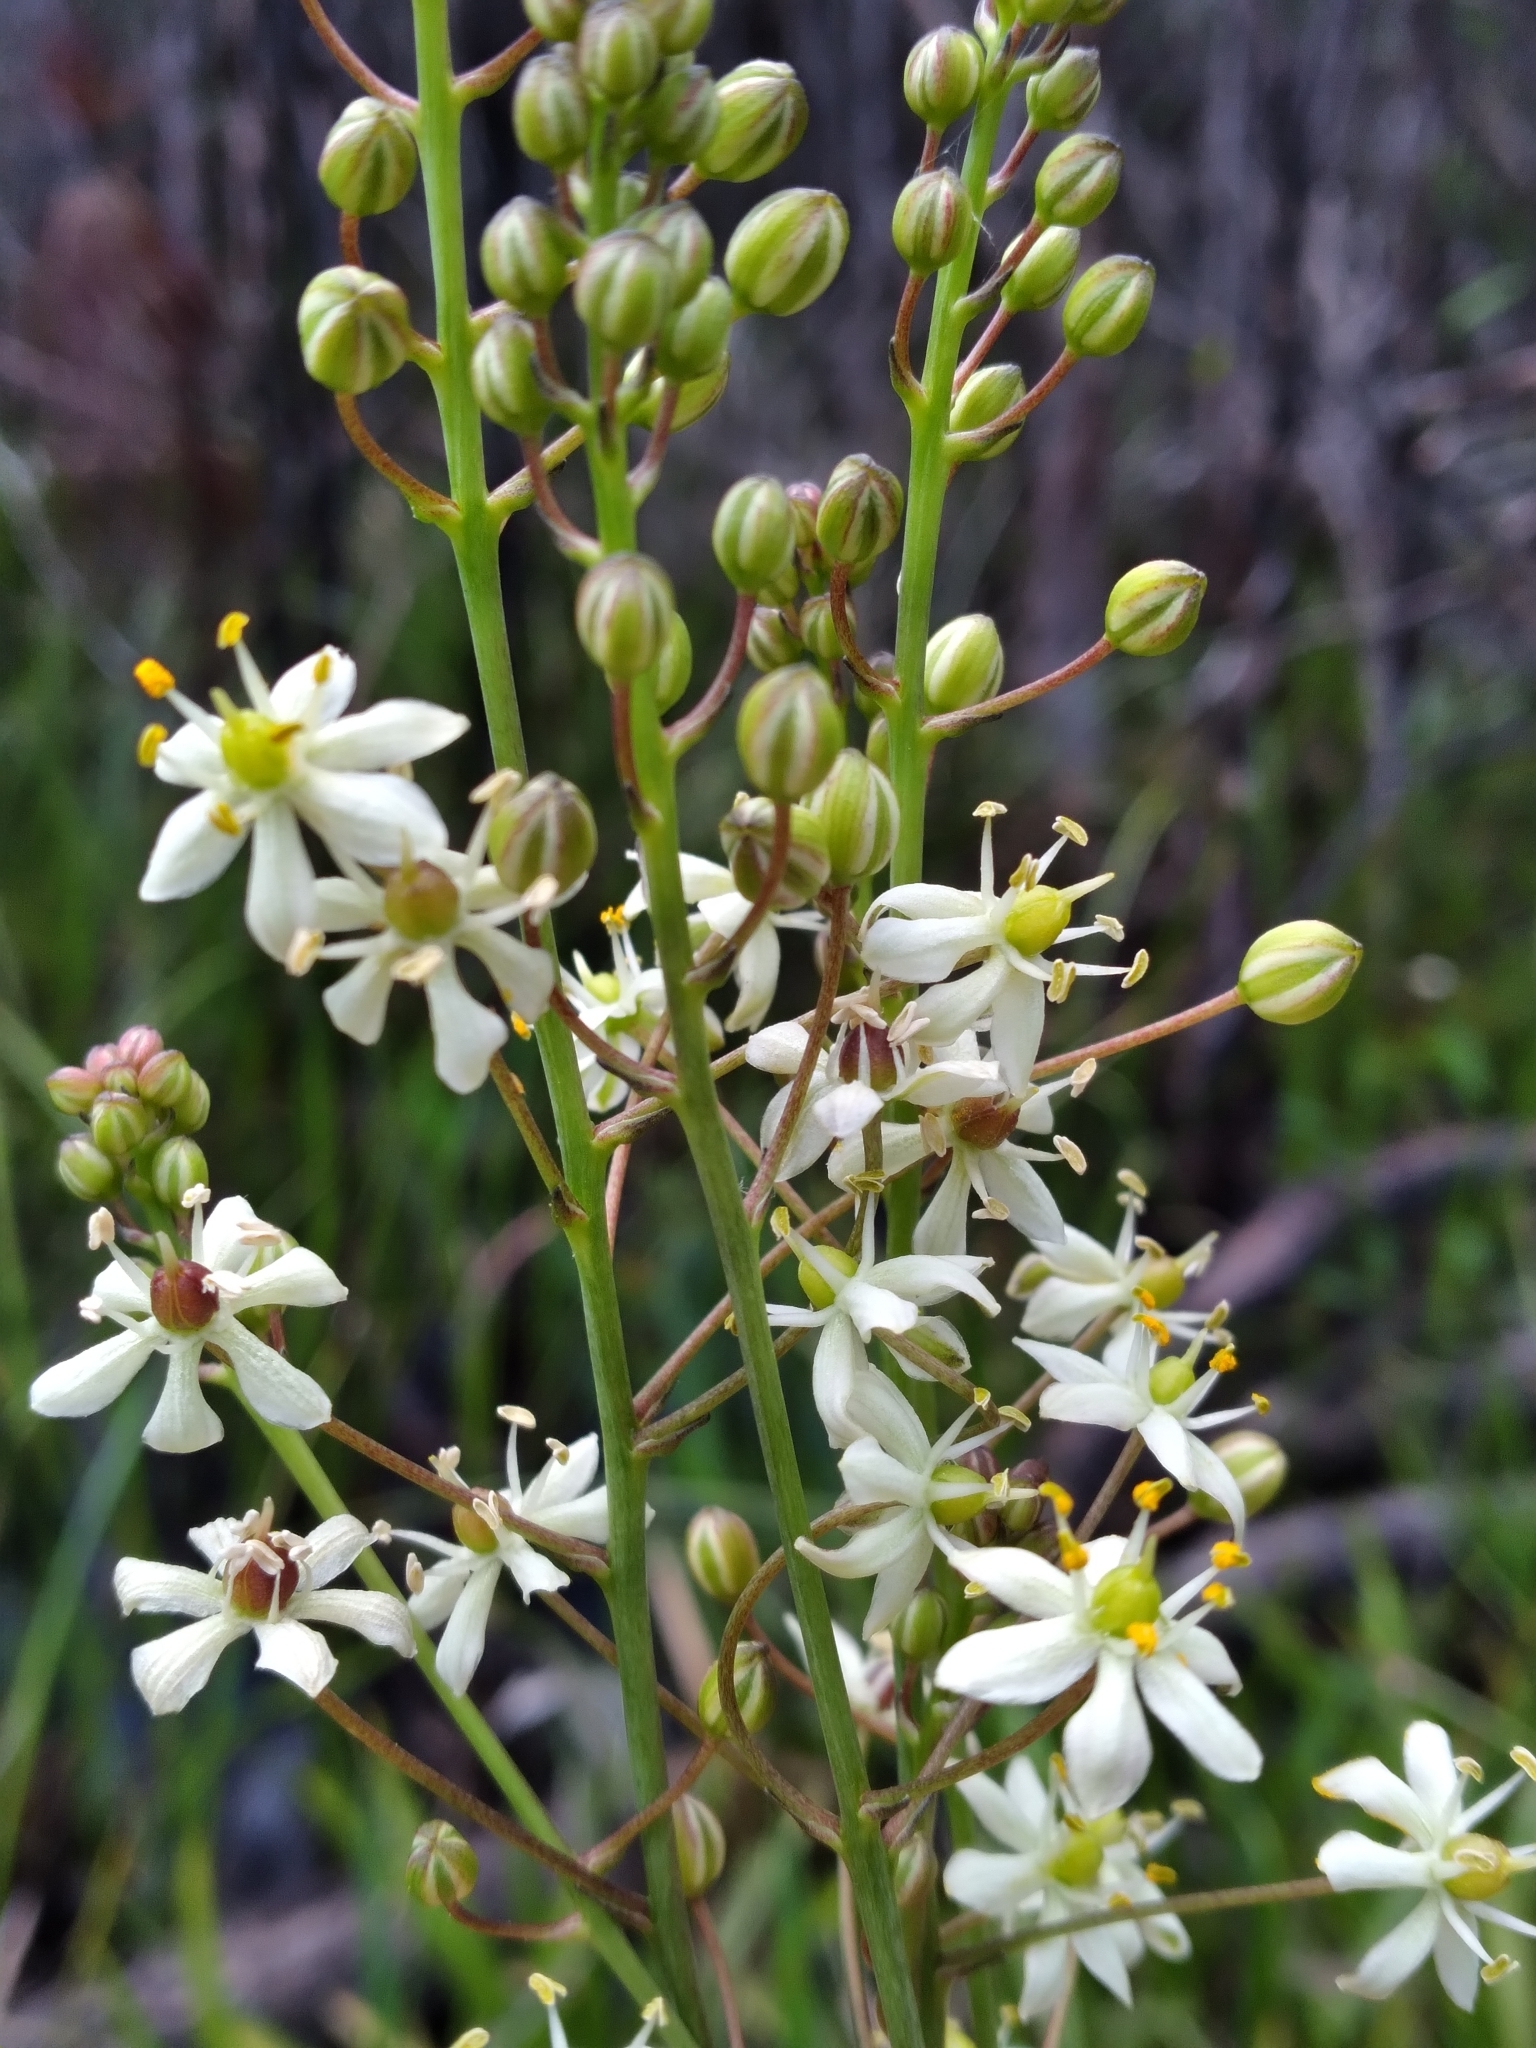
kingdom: Plantae
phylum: Tracheophyta
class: Liliopsida
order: Asparagales
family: Asparagaceae
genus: Schoenolirion
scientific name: Schoenolirion albiflorum
